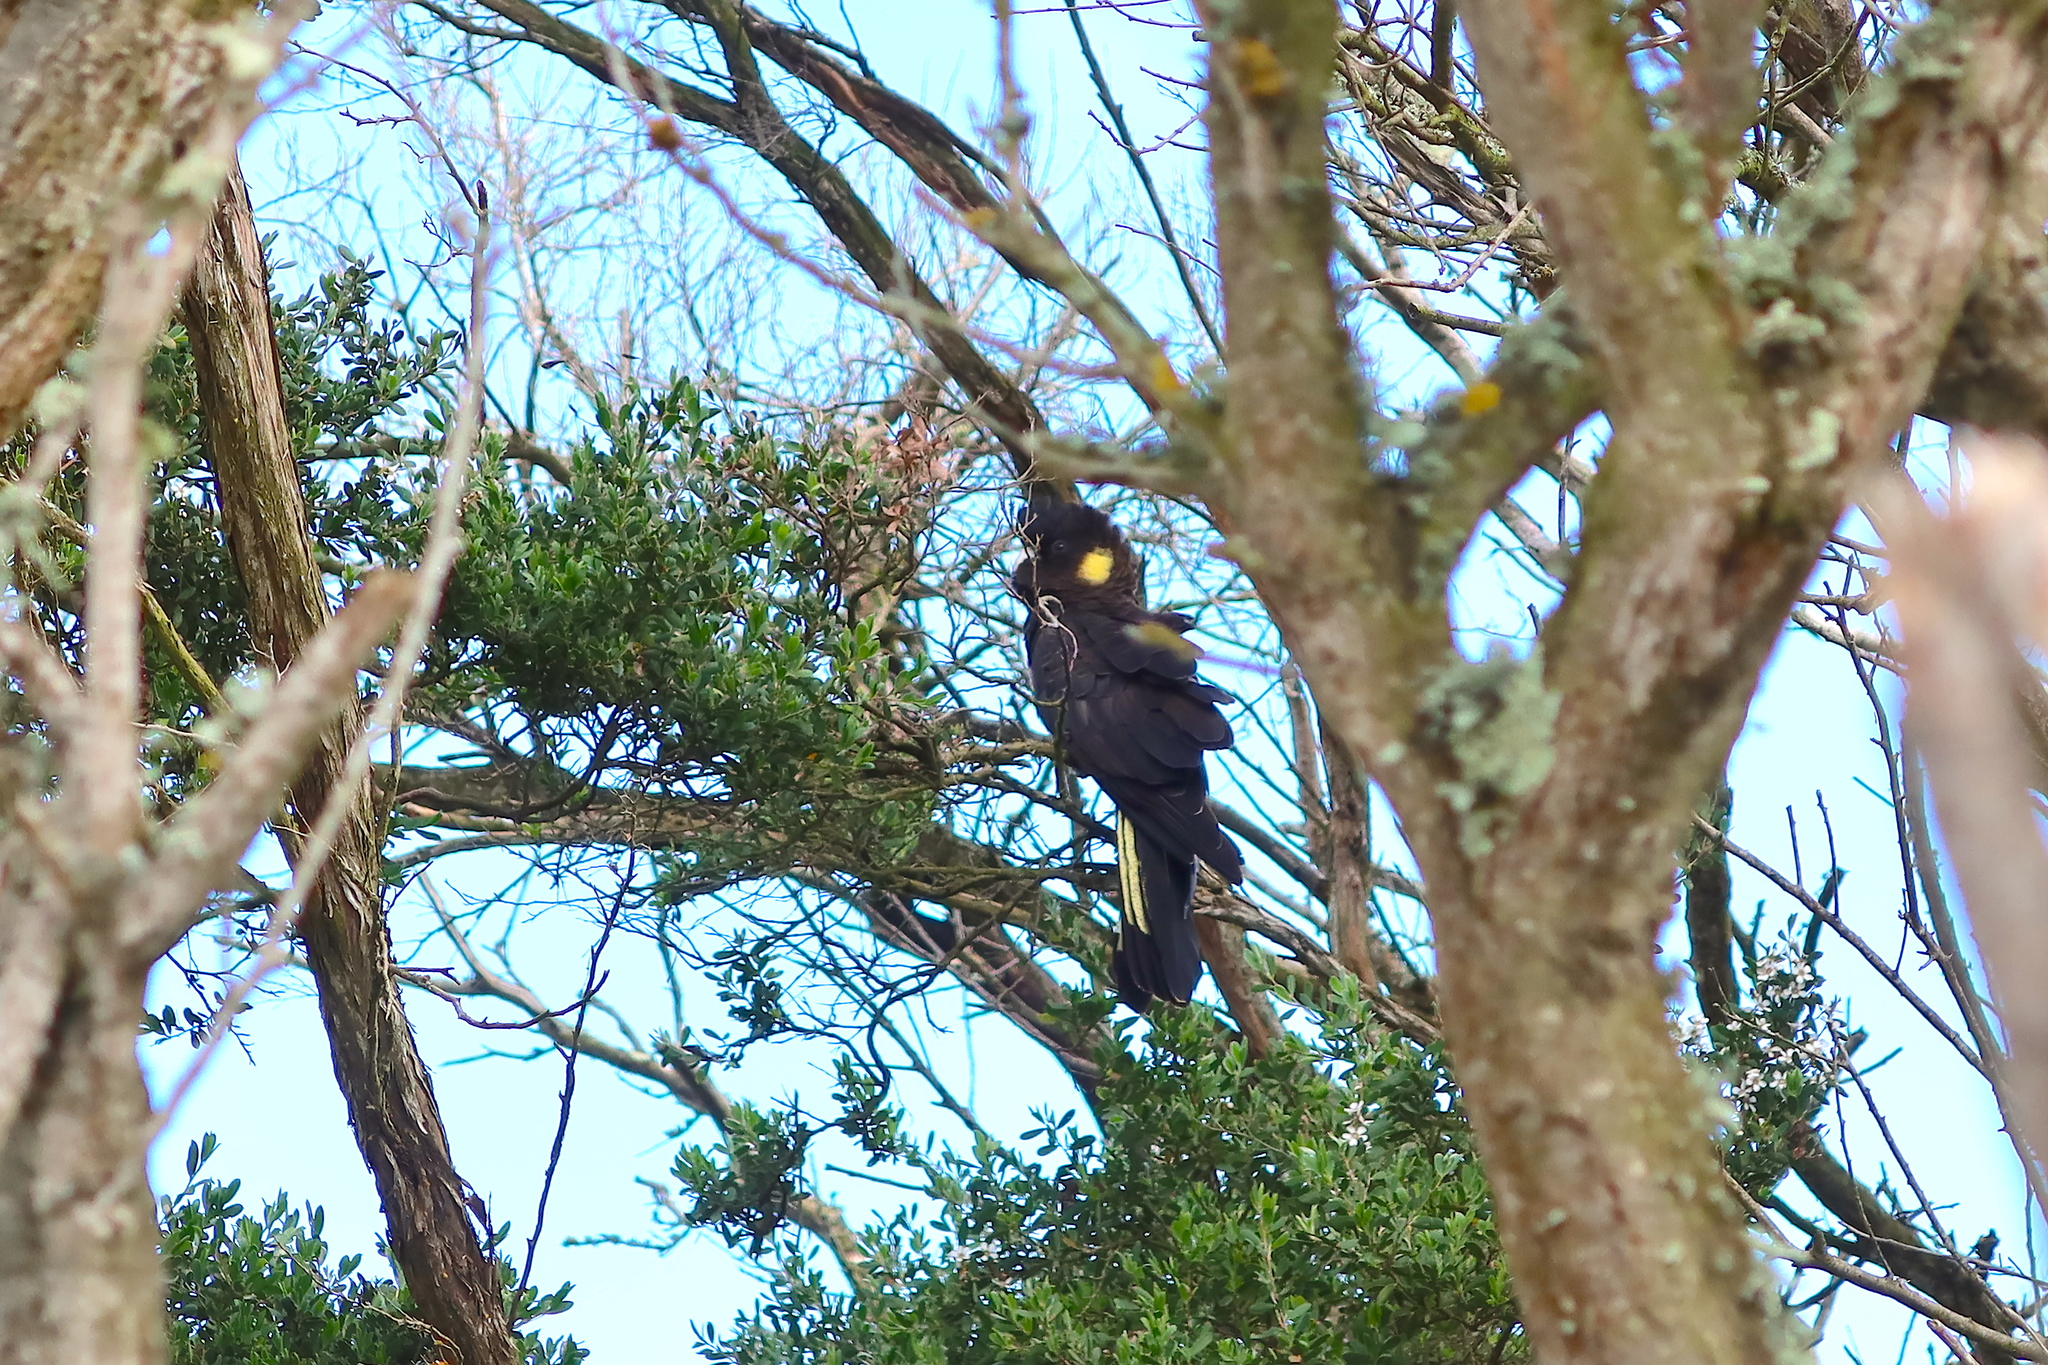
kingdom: Animalia
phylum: Chordata
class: Aves
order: Psittaciformes
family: Cacatuidae
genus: Zanda
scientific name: Zanda funerea
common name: Yellow-tailed black-cockatoo
